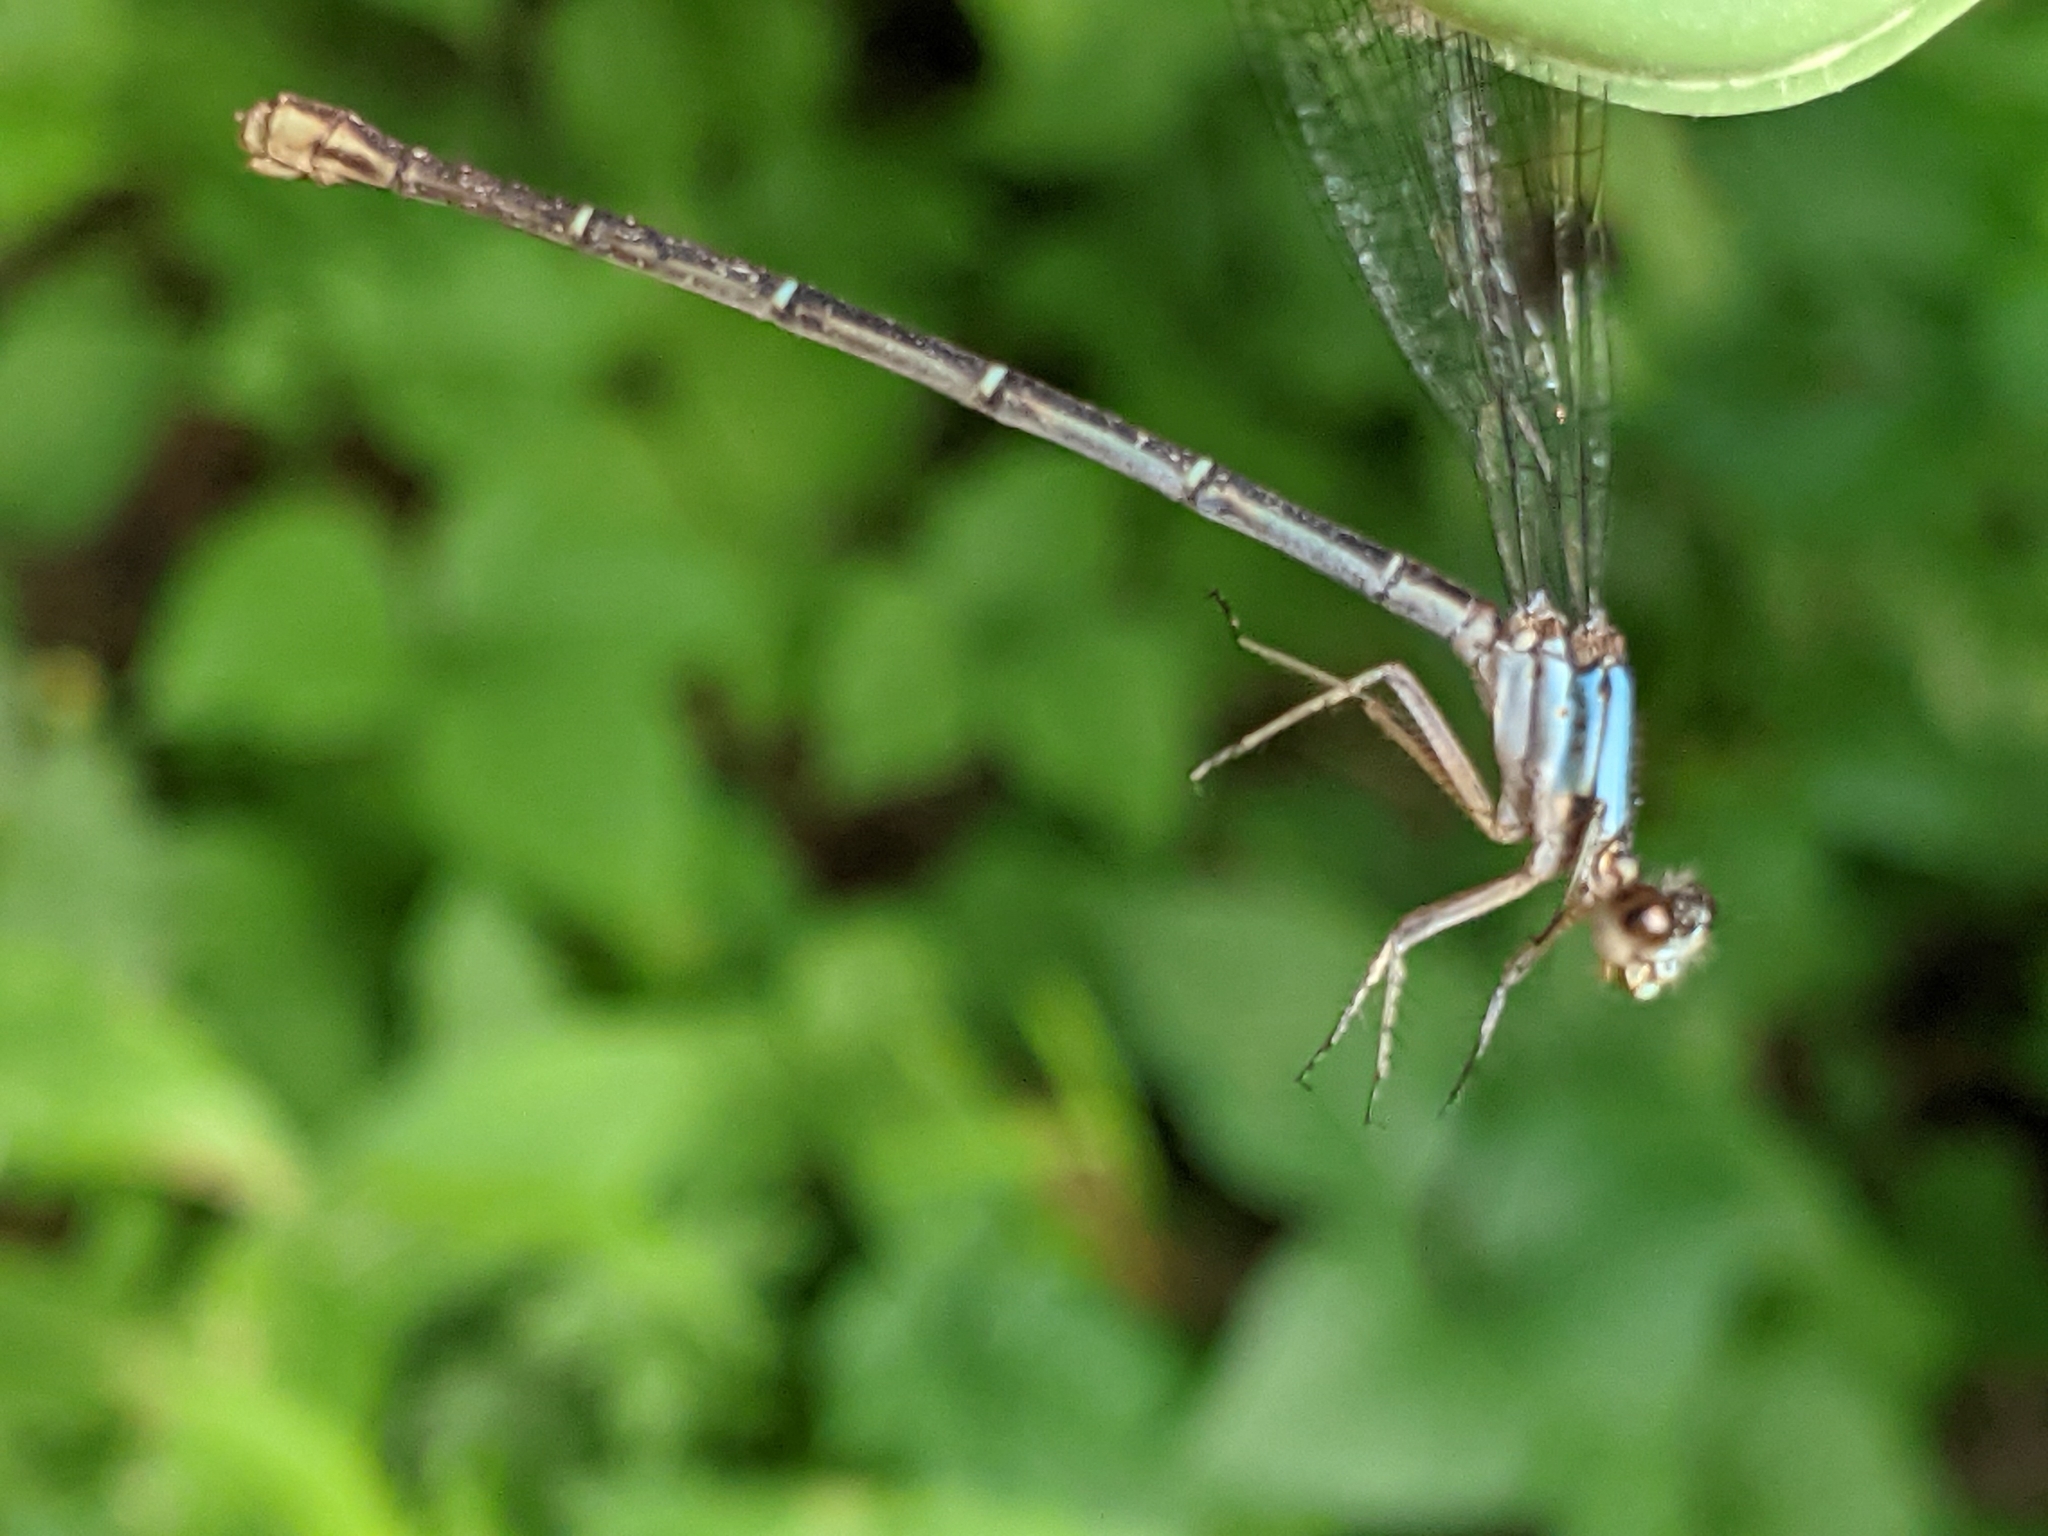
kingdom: Animalia
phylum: Arthropoda
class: Insecta
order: Odonata
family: Coenagrionidae
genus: Argia
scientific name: Argia moesta
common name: Powdered dancer
